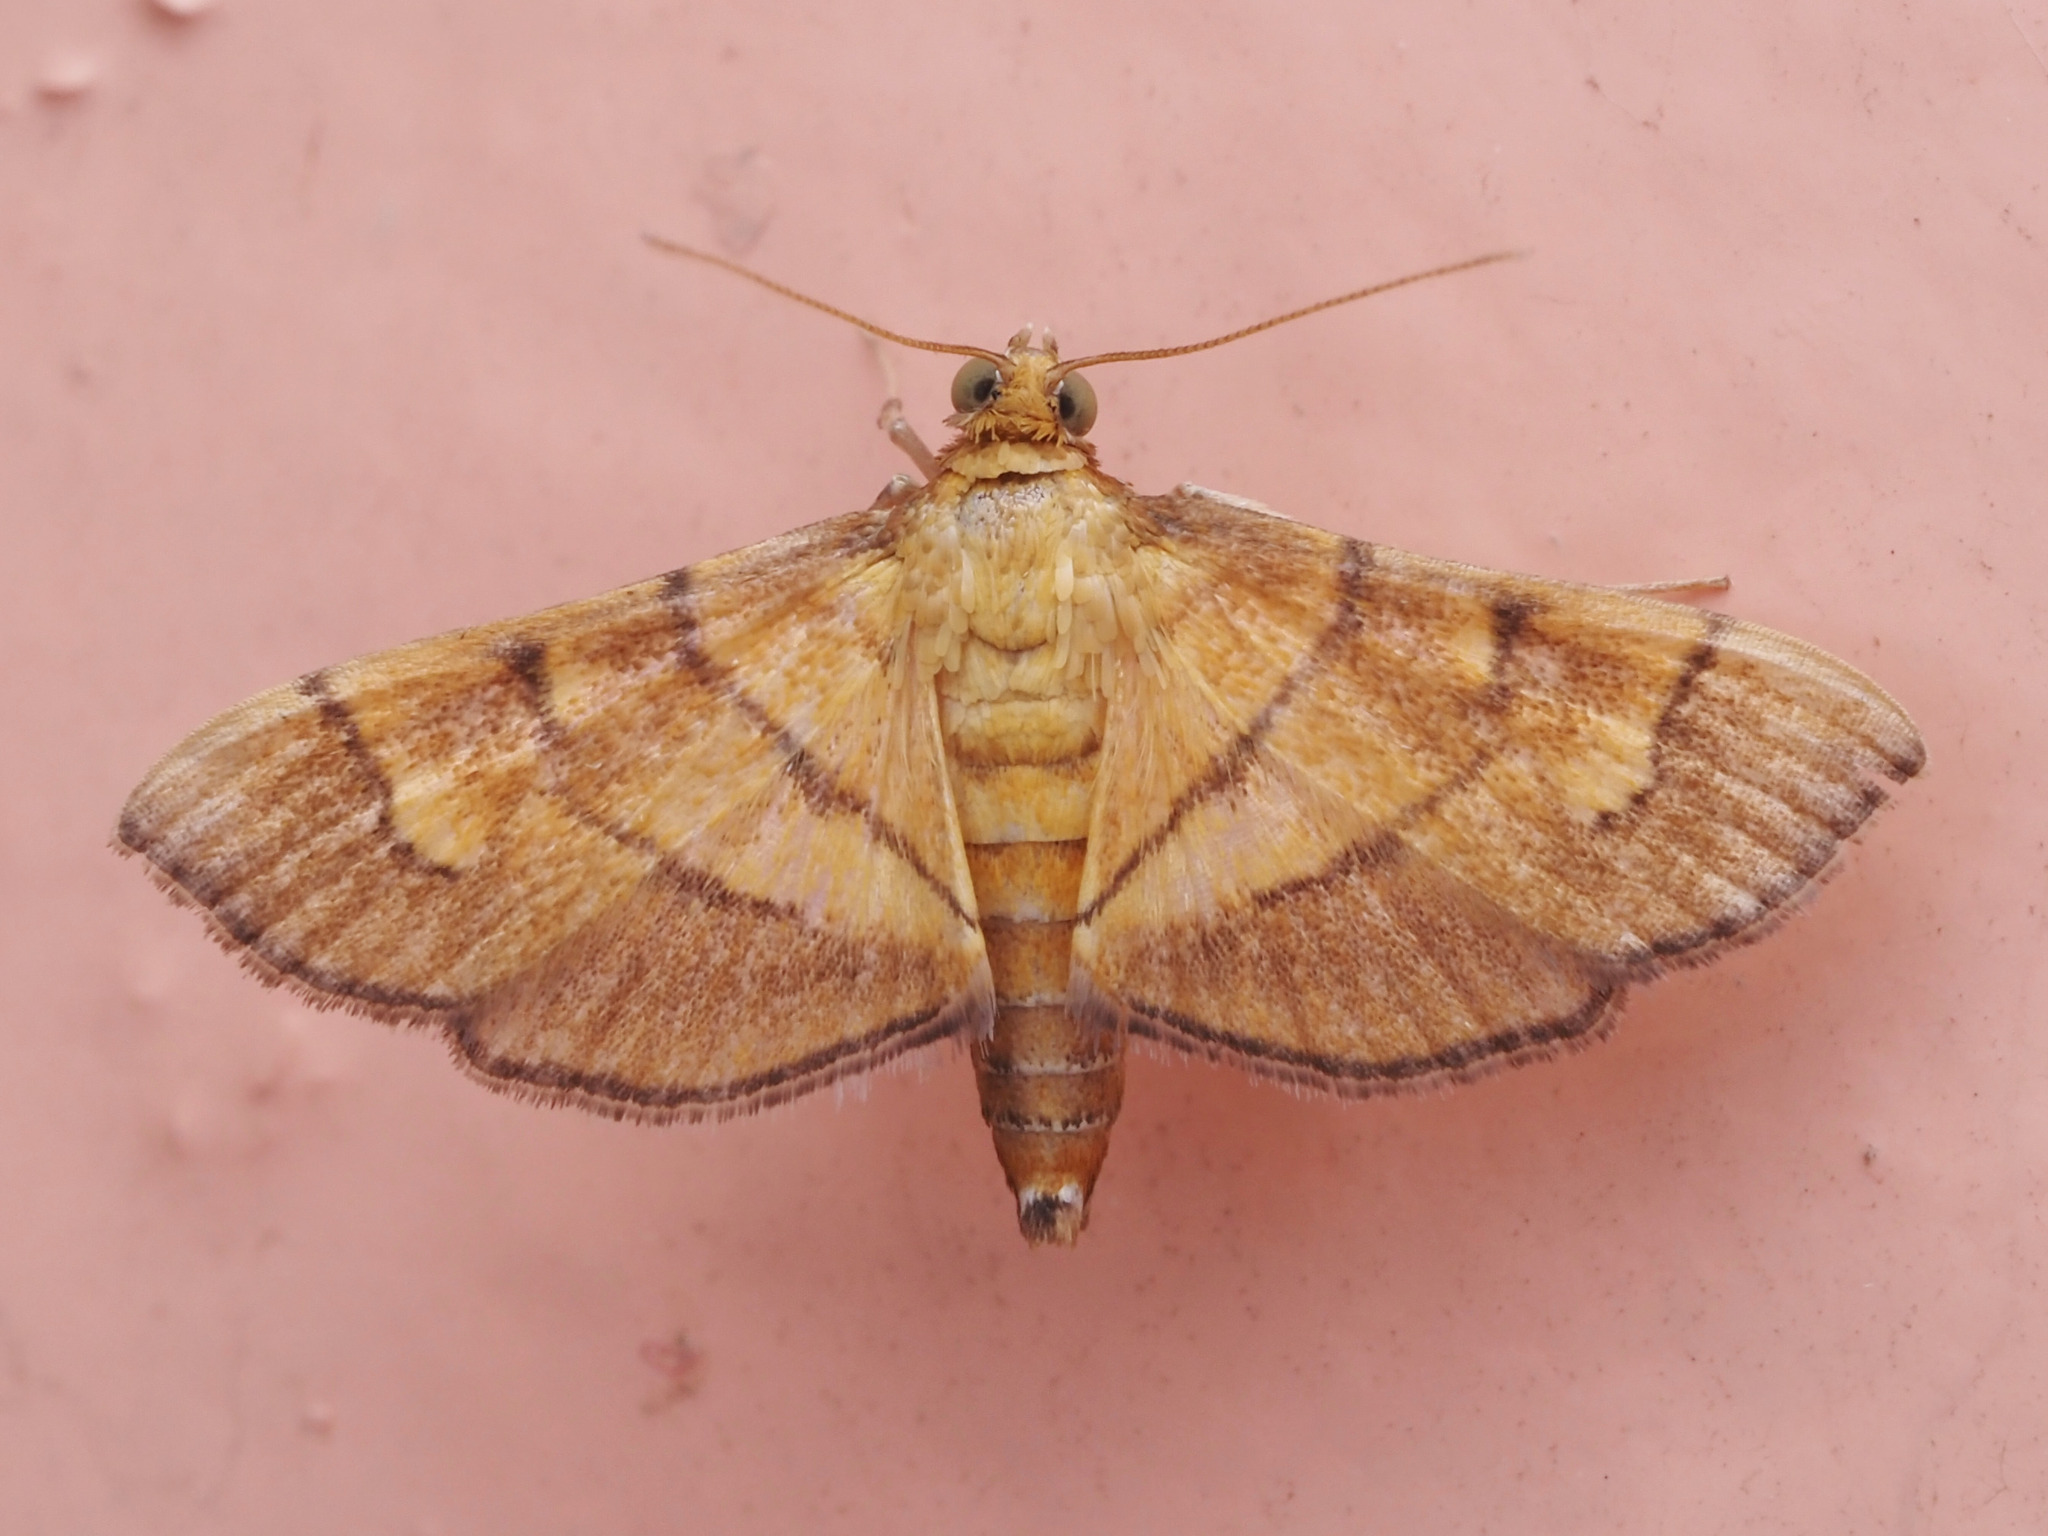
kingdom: Animalia
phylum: Arthropoda
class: Insecta
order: Lepidoptera
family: Crambidae
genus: Salbia
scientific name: Salbia haemorrhoidalis
